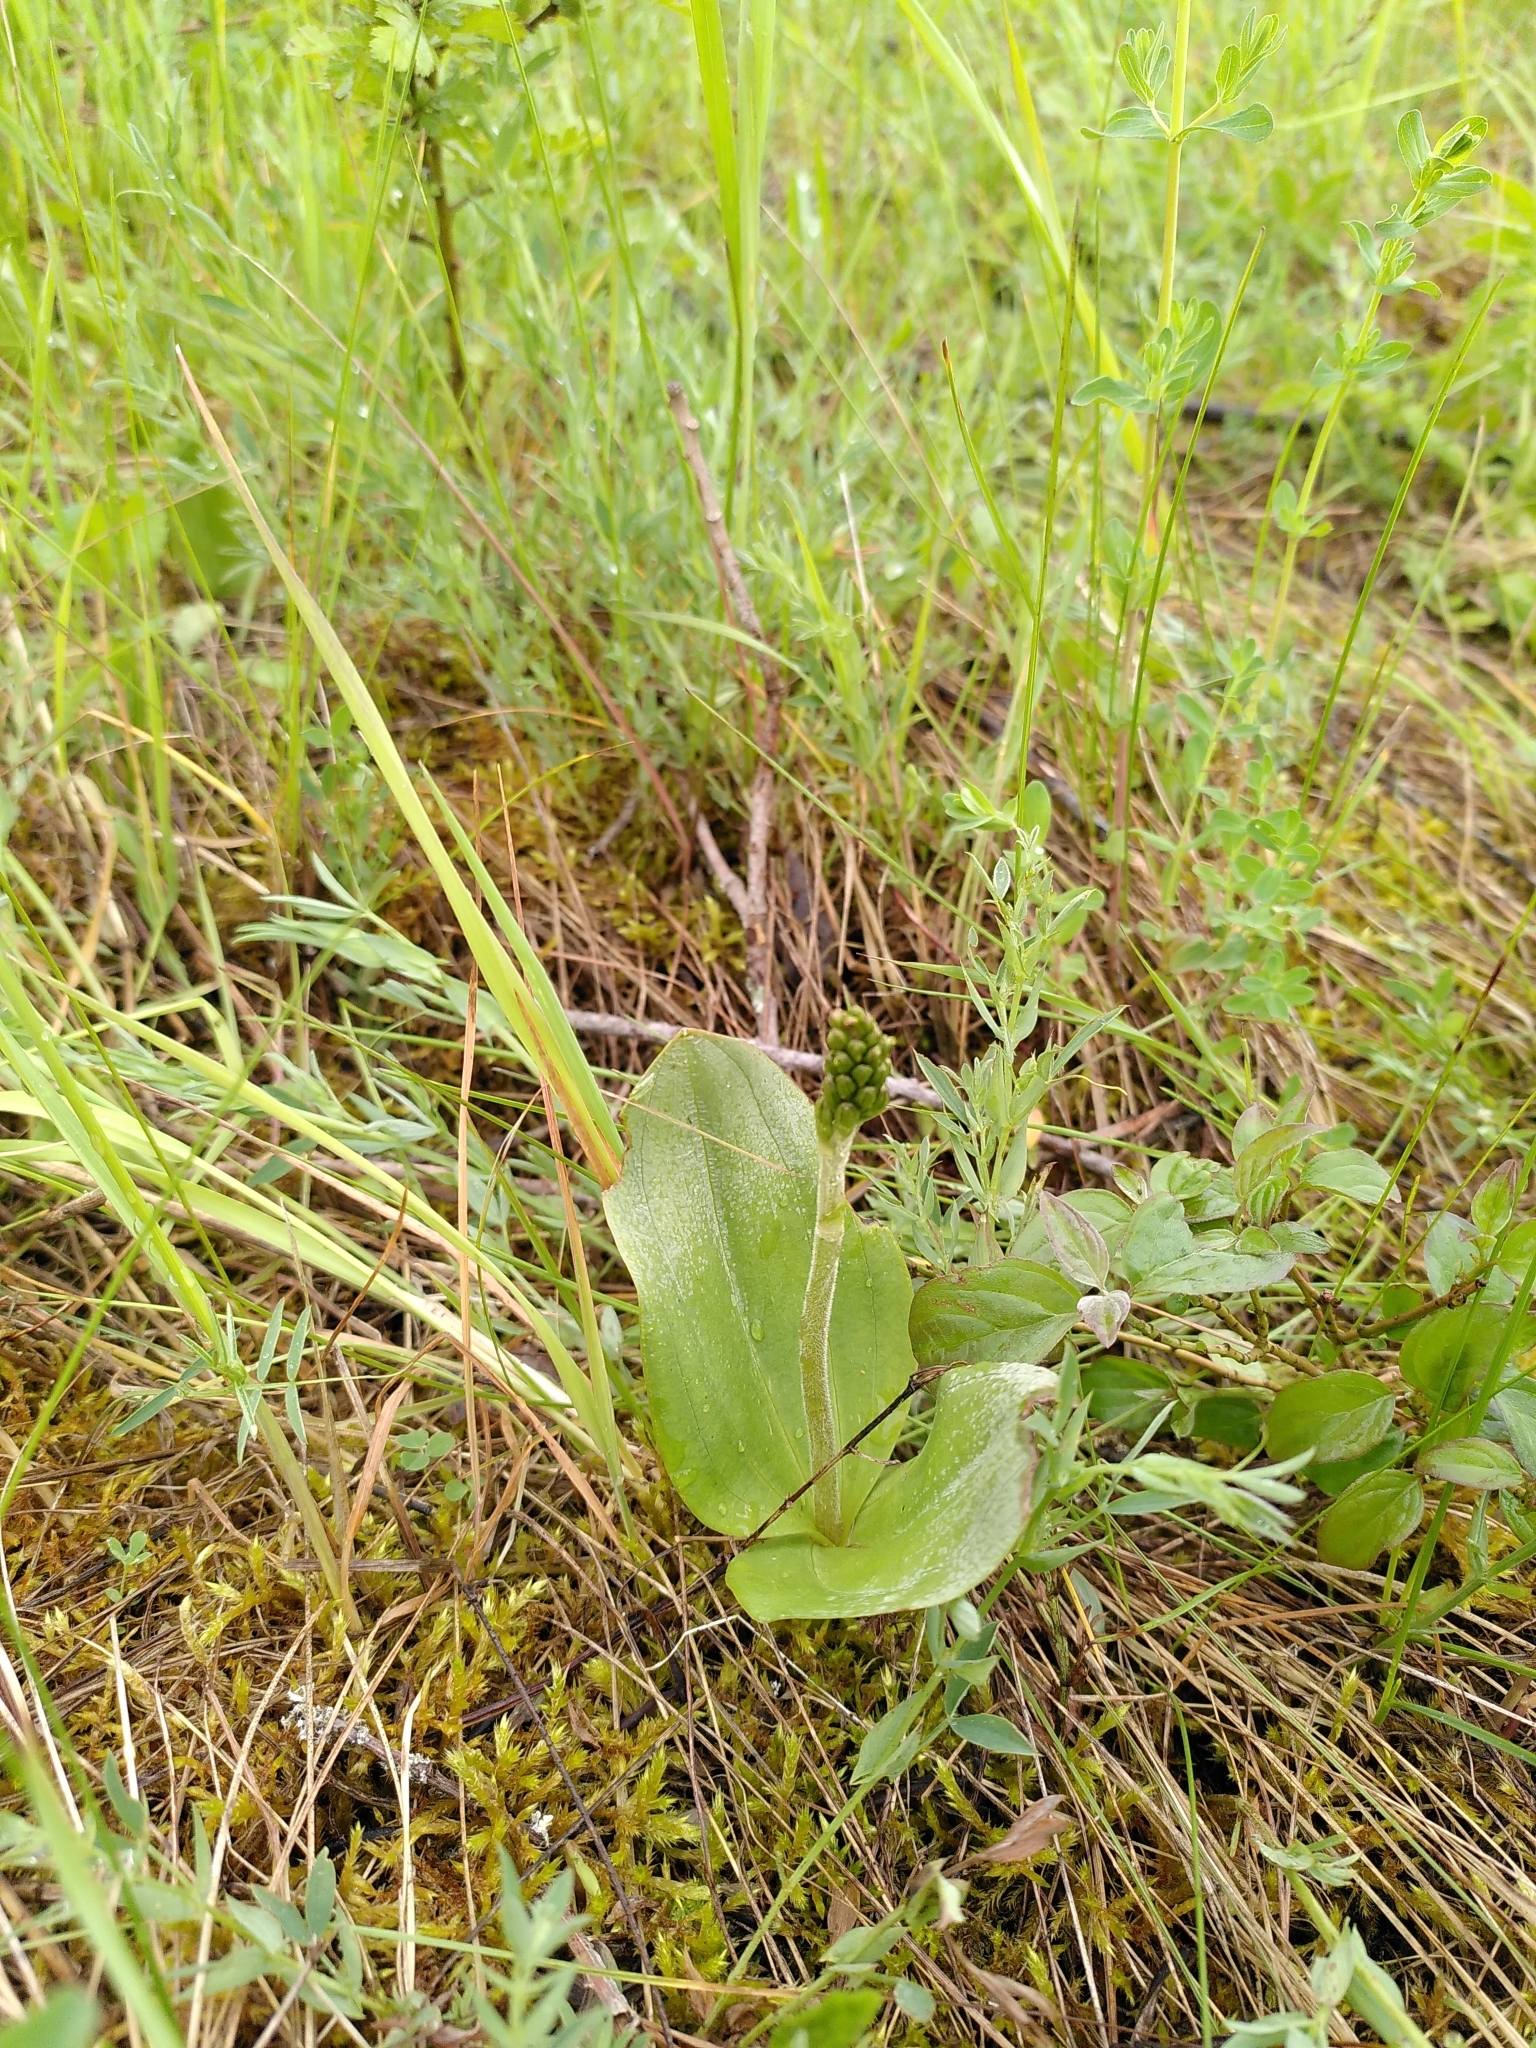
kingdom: Plantae
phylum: Tracheophyta
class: Liliopsida
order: Asparagales
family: Orchidaceae
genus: Neottia
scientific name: Neottia ovata
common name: Common twayblade
